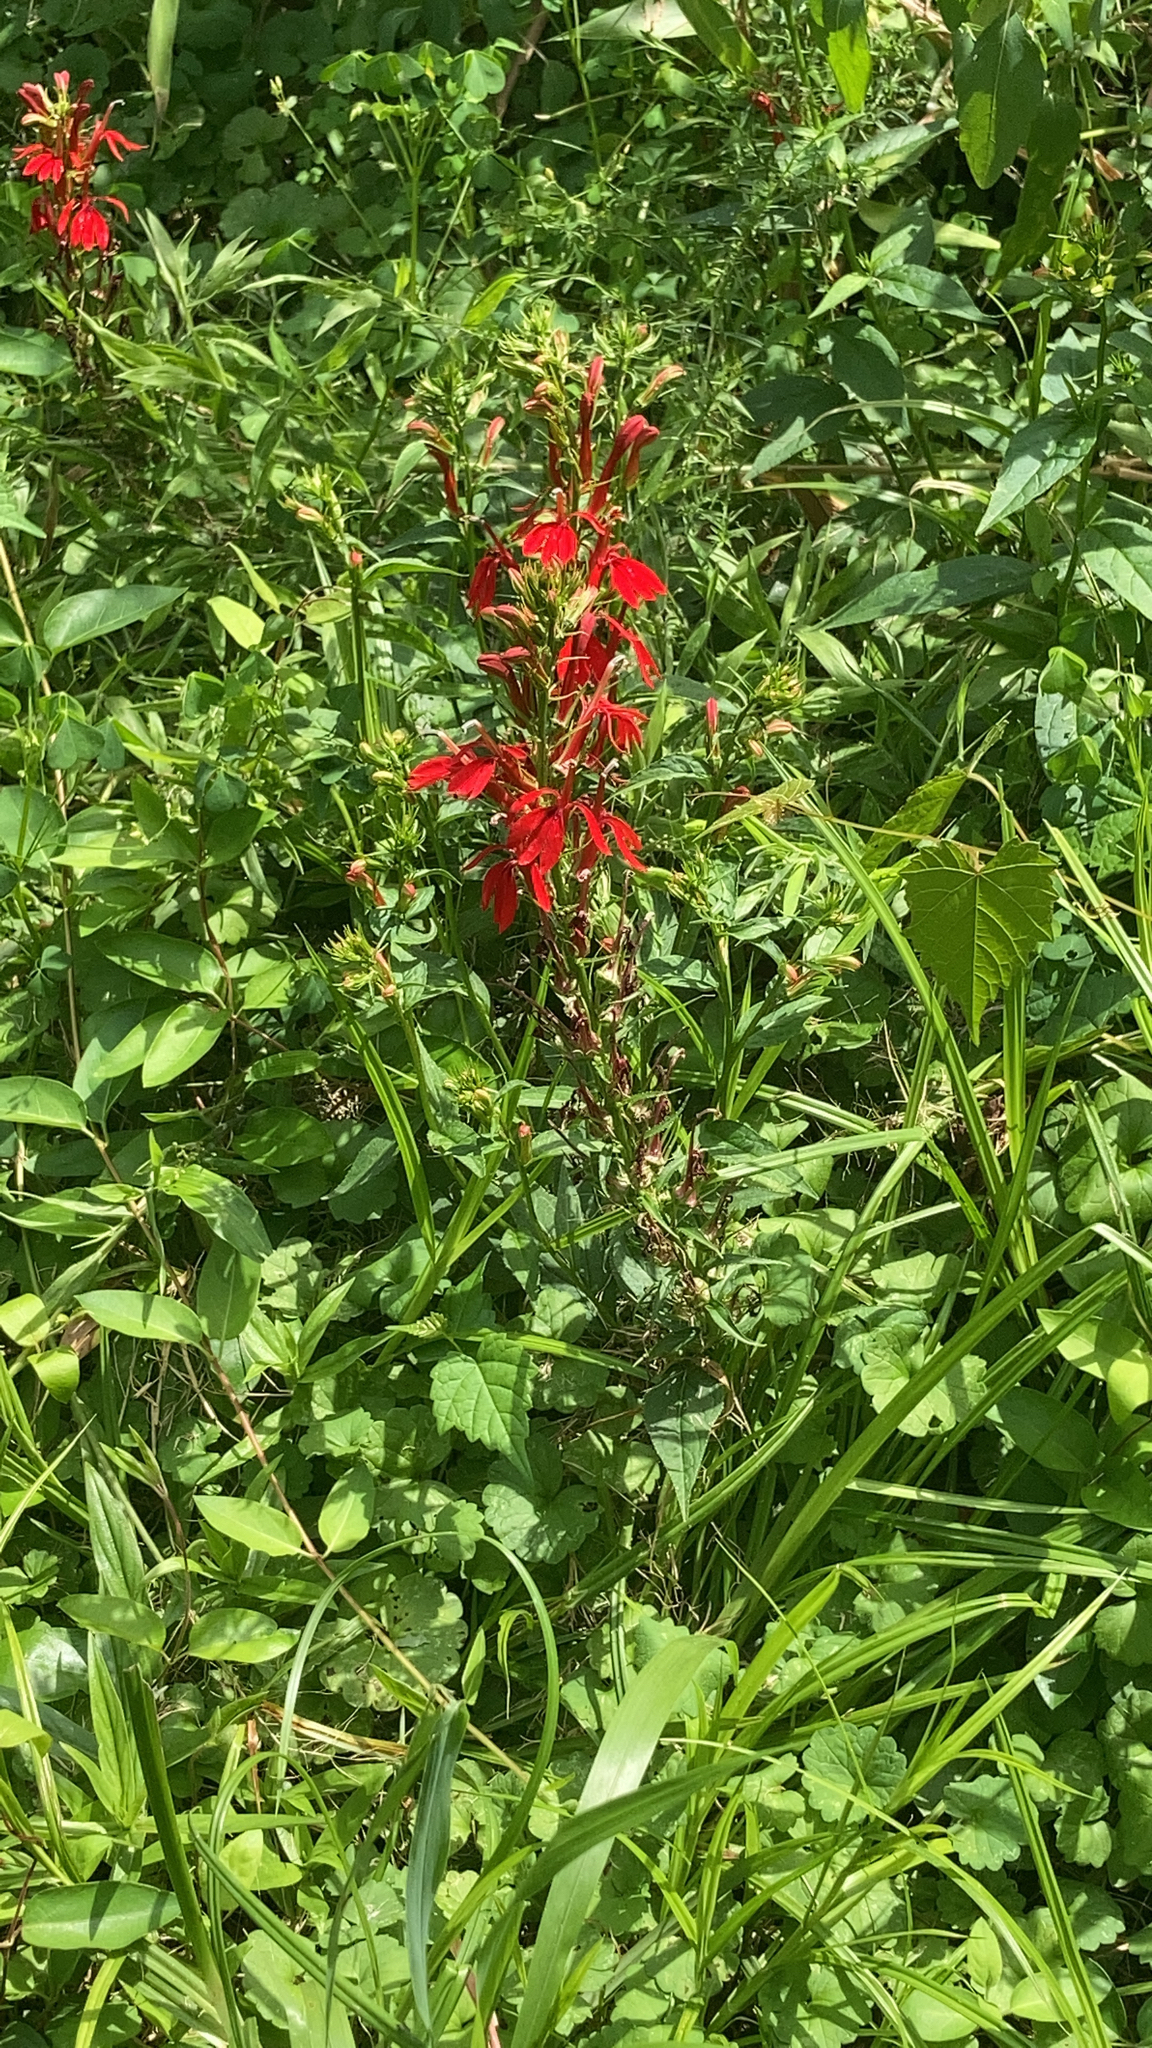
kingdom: Plantae
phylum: Tracheophyta
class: Magnoliopsida
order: Asterales
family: Campanulaceae
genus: Lobelia
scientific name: Lobelia cardinalis
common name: Cardinal flower
